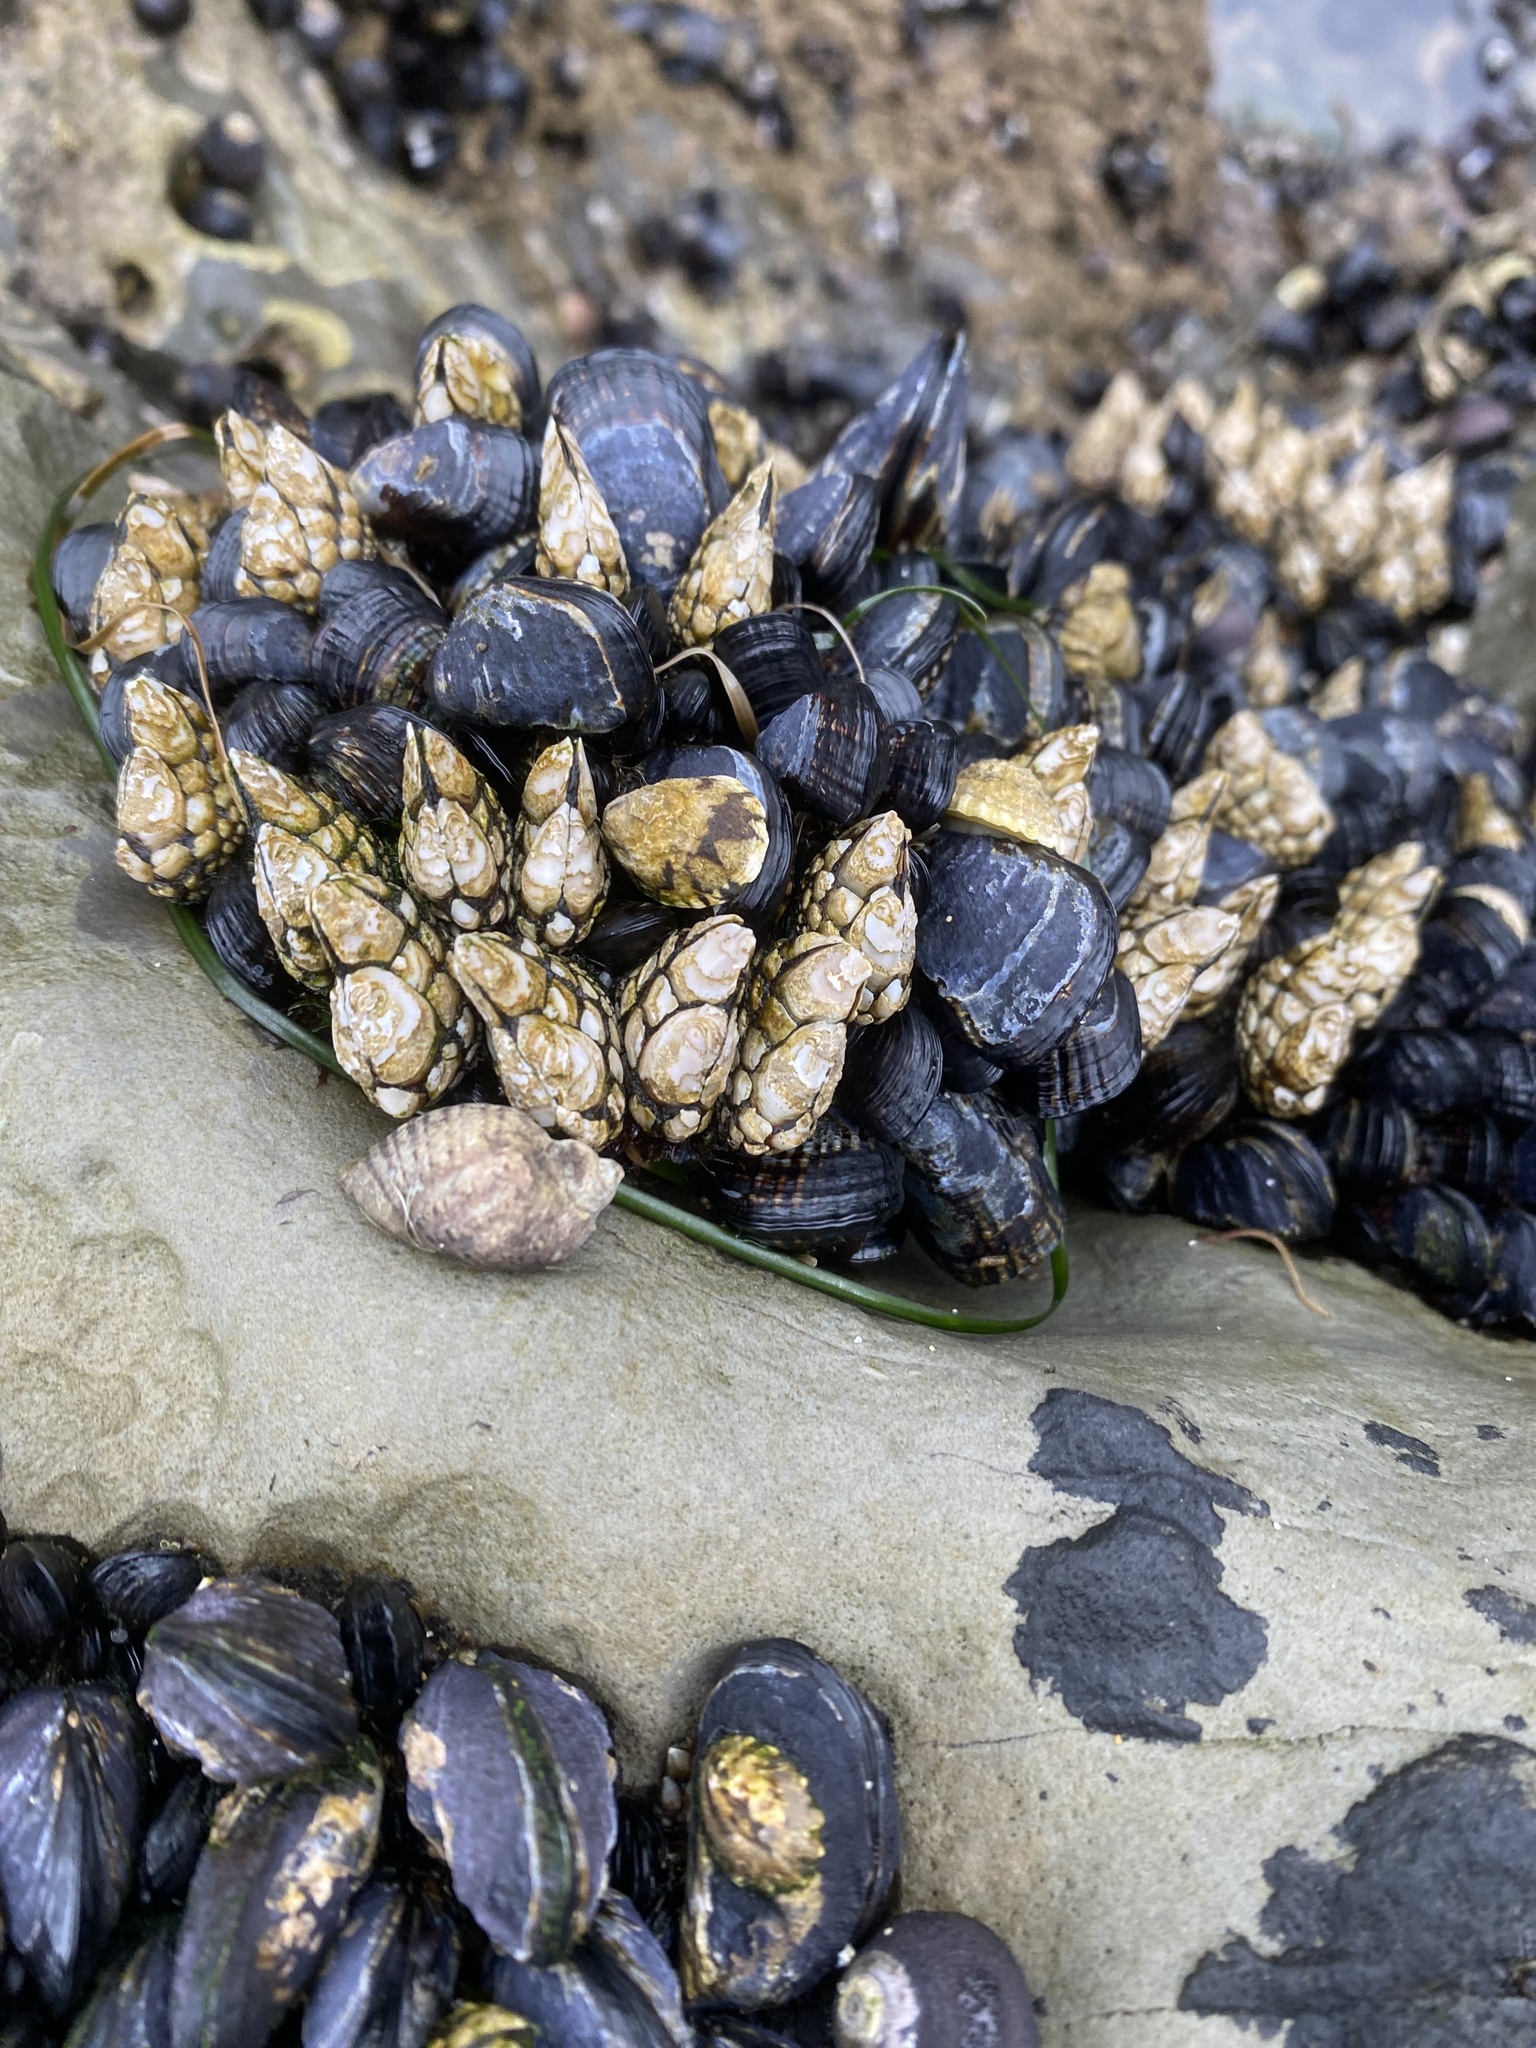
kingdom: Animalia
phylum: Mollusca
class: Bivalvia
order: Mytilida
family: Mytilidae
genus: Mytilus
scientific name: Mytilus californianus
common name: California mussel
